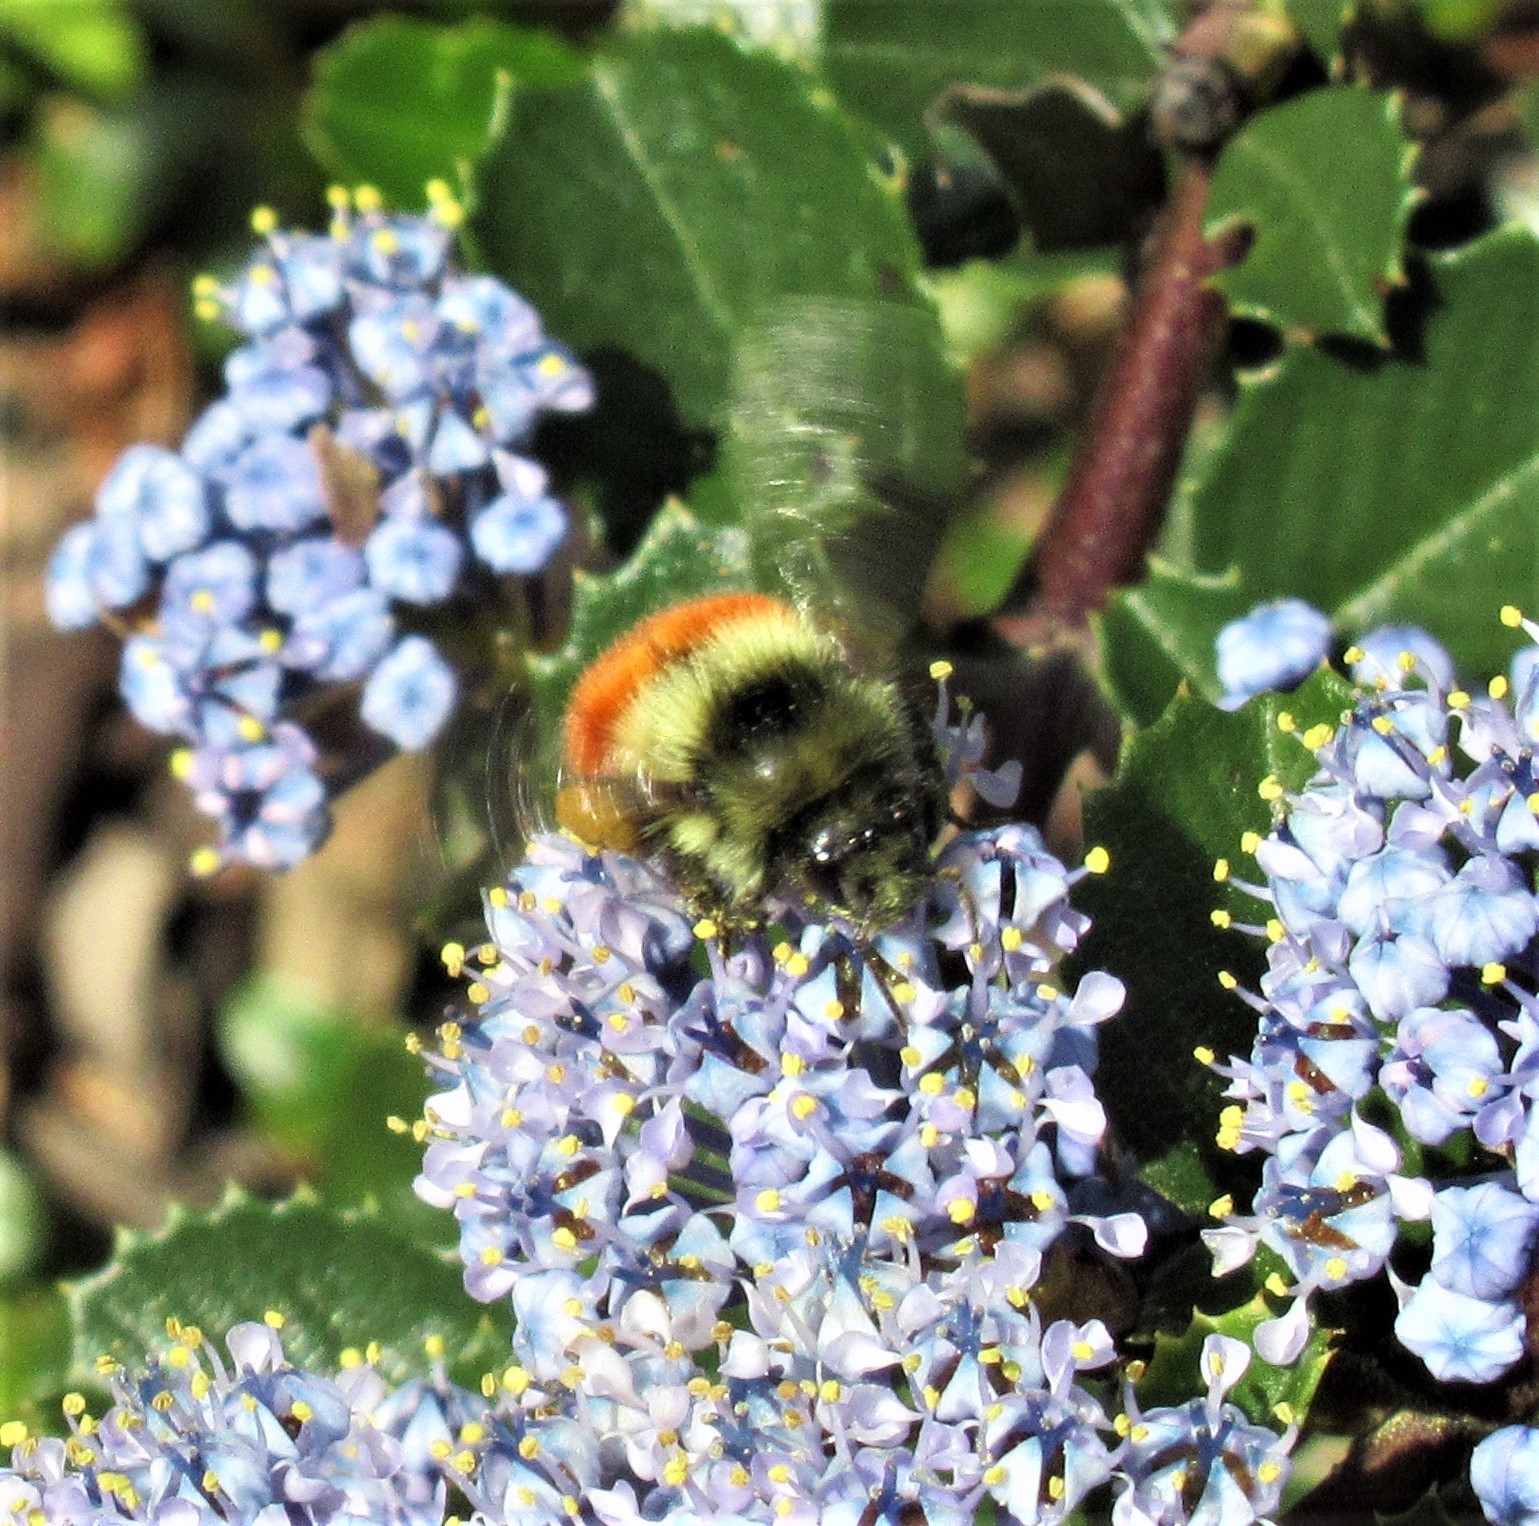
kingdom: Animalia
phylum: Arthropoda
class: Insecta
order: Hymenoptera
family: Apidae
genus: Bombus
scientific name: Bombus melanopygus
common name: Black tail bumble bee
